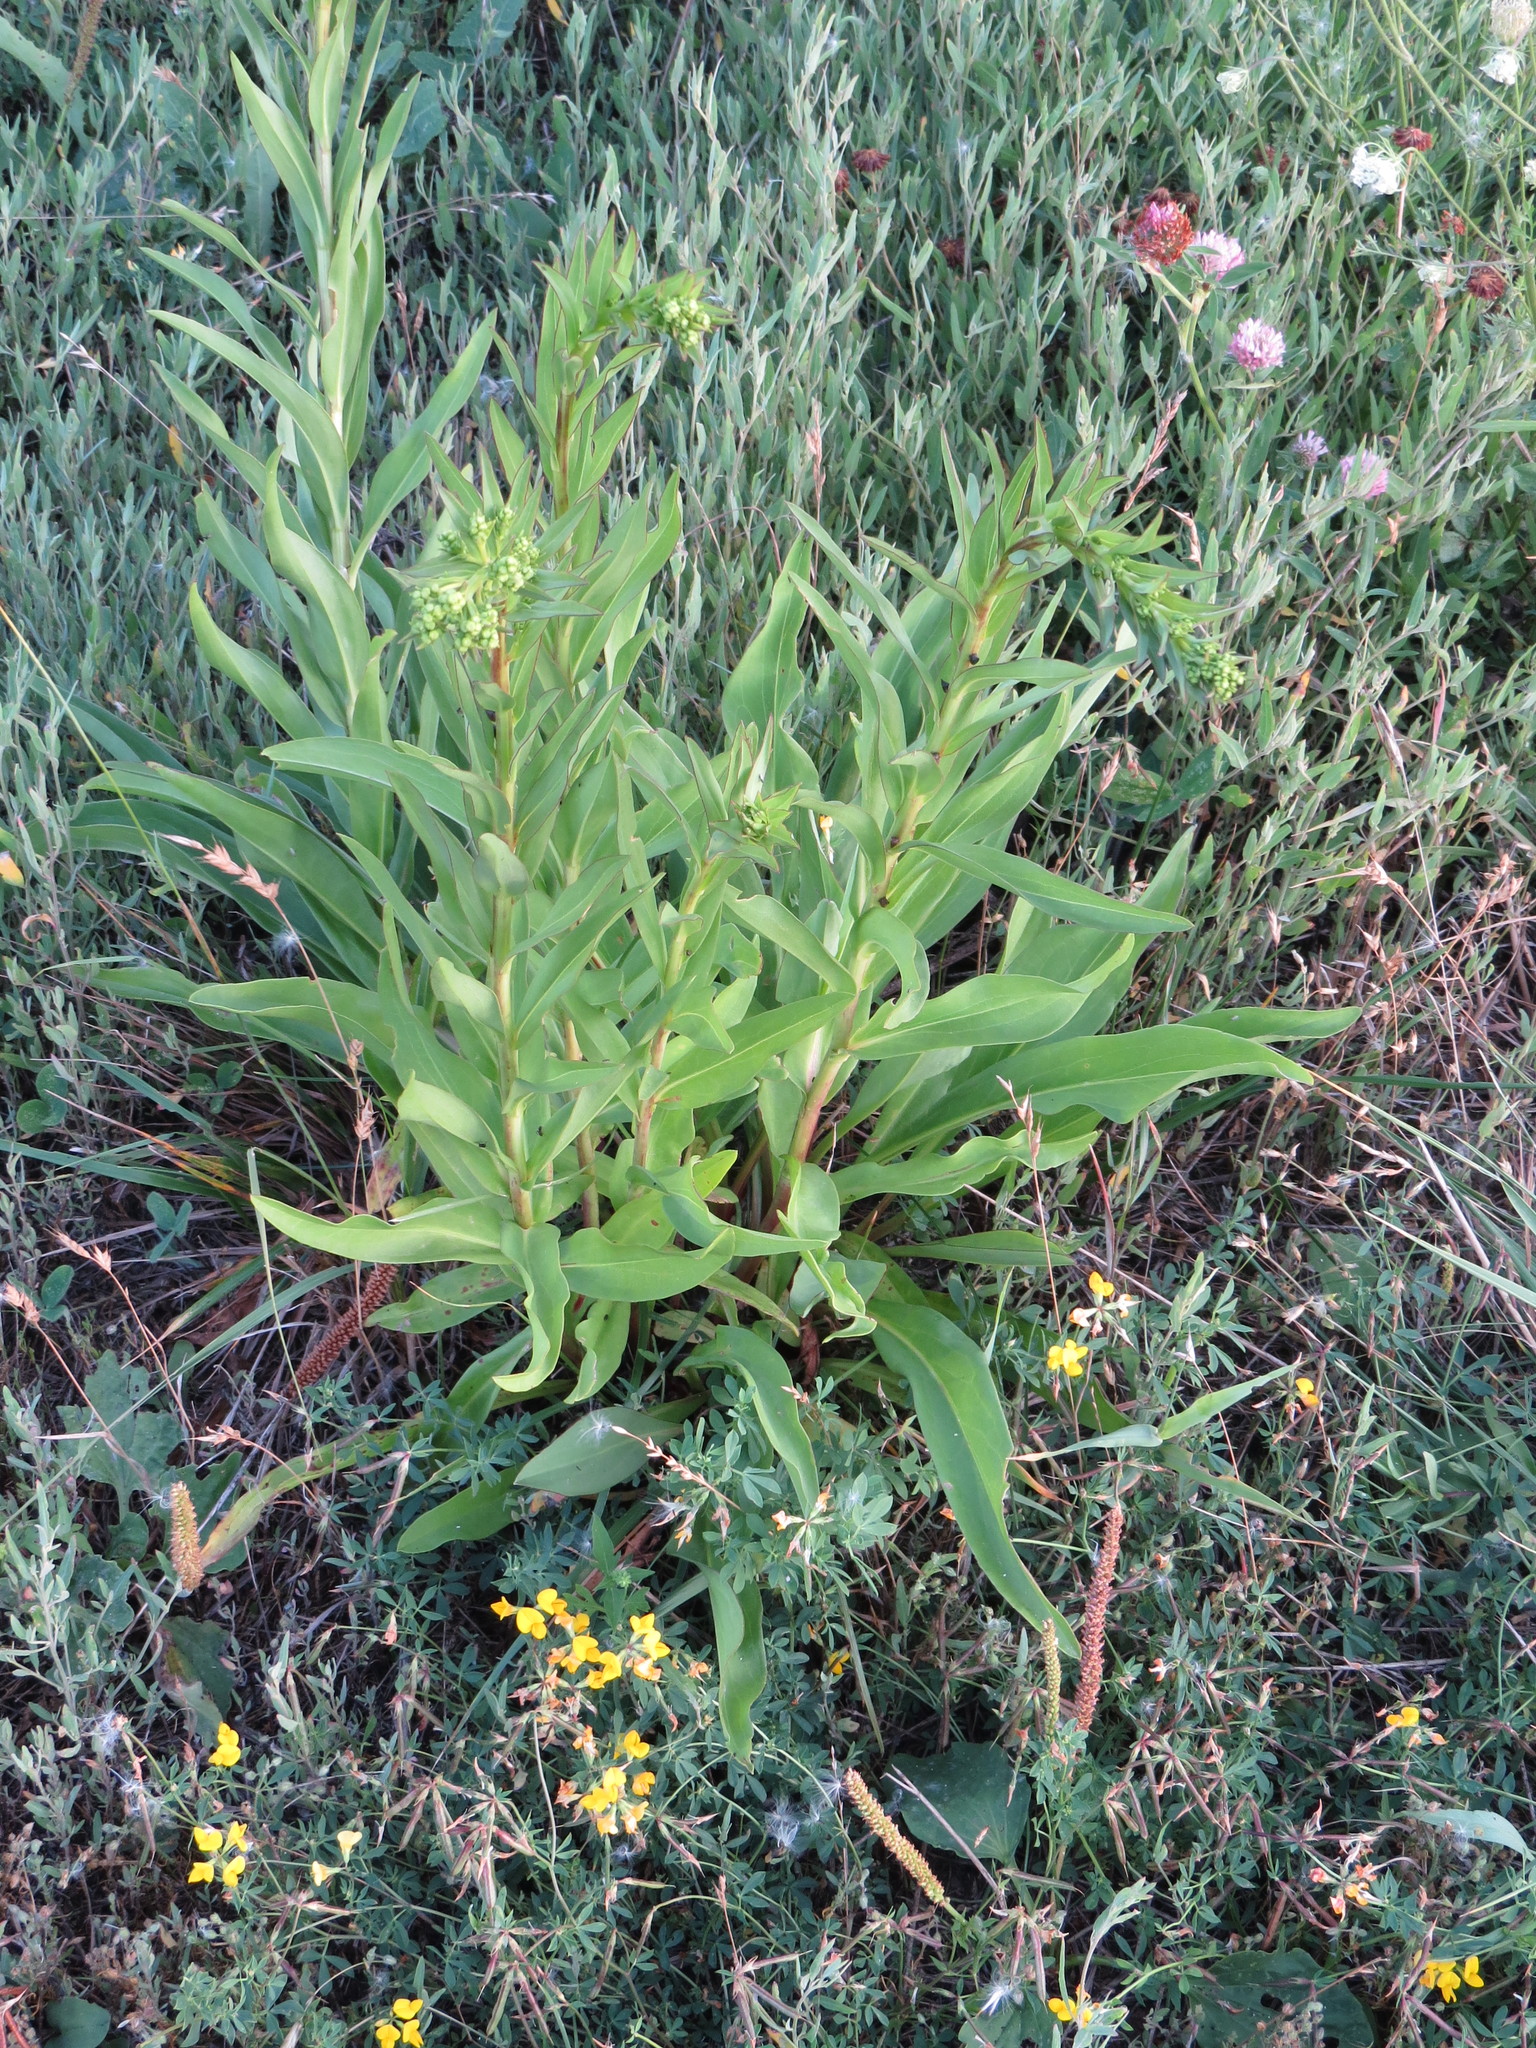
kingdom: Plantae
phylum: Tracheophyta
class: Magnoliopsida
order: Asterales
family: Asteraceae
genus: Solidago
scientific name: Solidago sempervirens
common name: Salt-marsh goldenrod
